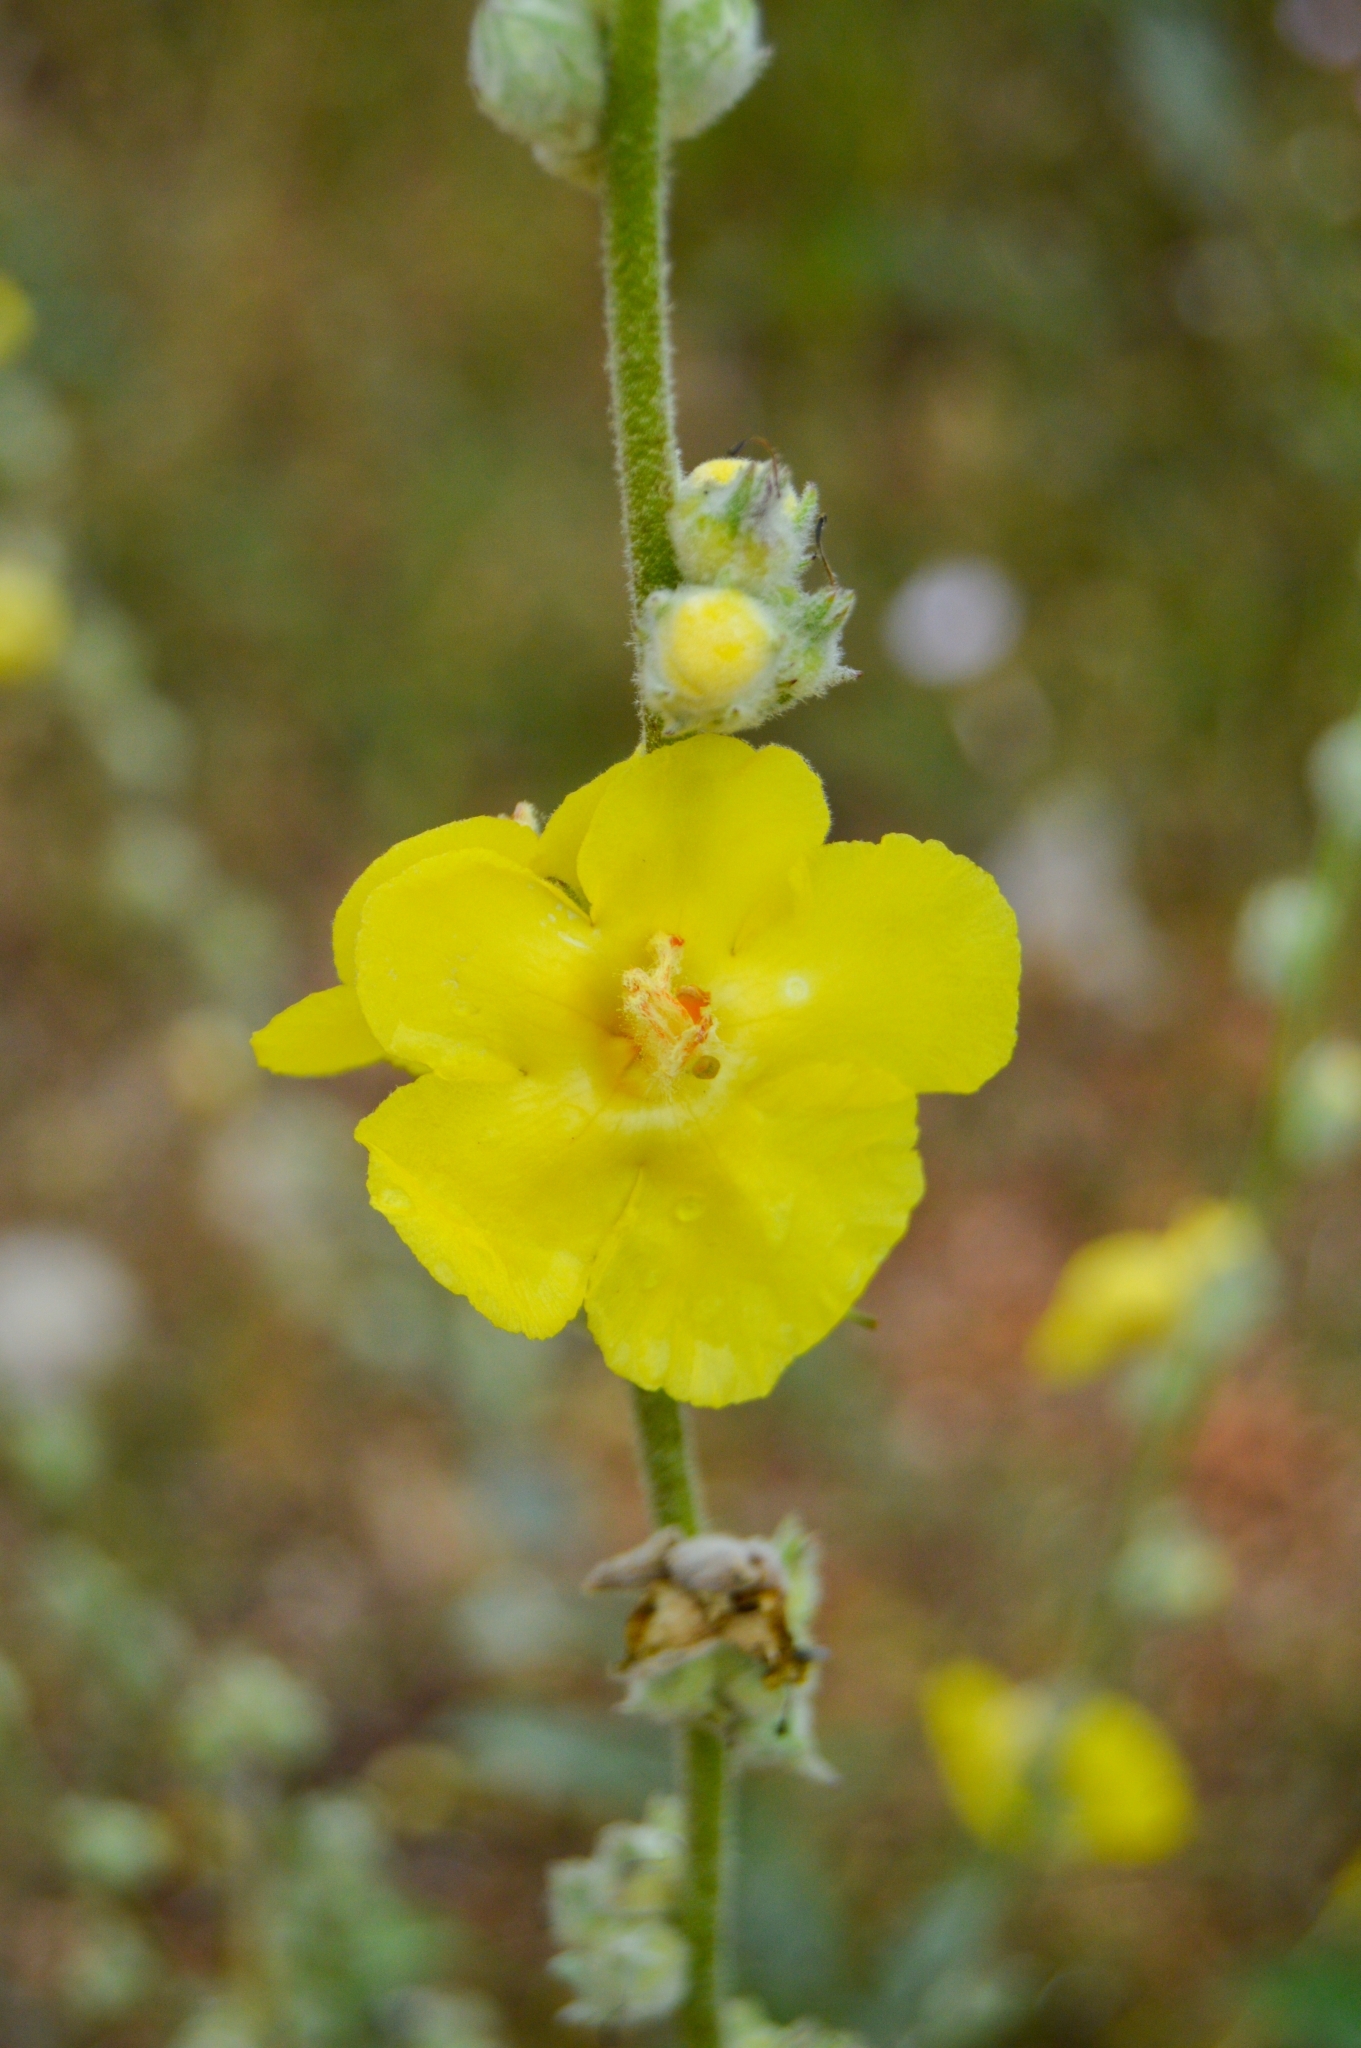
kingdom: Plantae
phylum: Tracheophyta
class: Magnoliopsida
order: Lamiales
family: Scrophulariaceae
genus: Verbascum
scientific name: Verbascum undulatum
